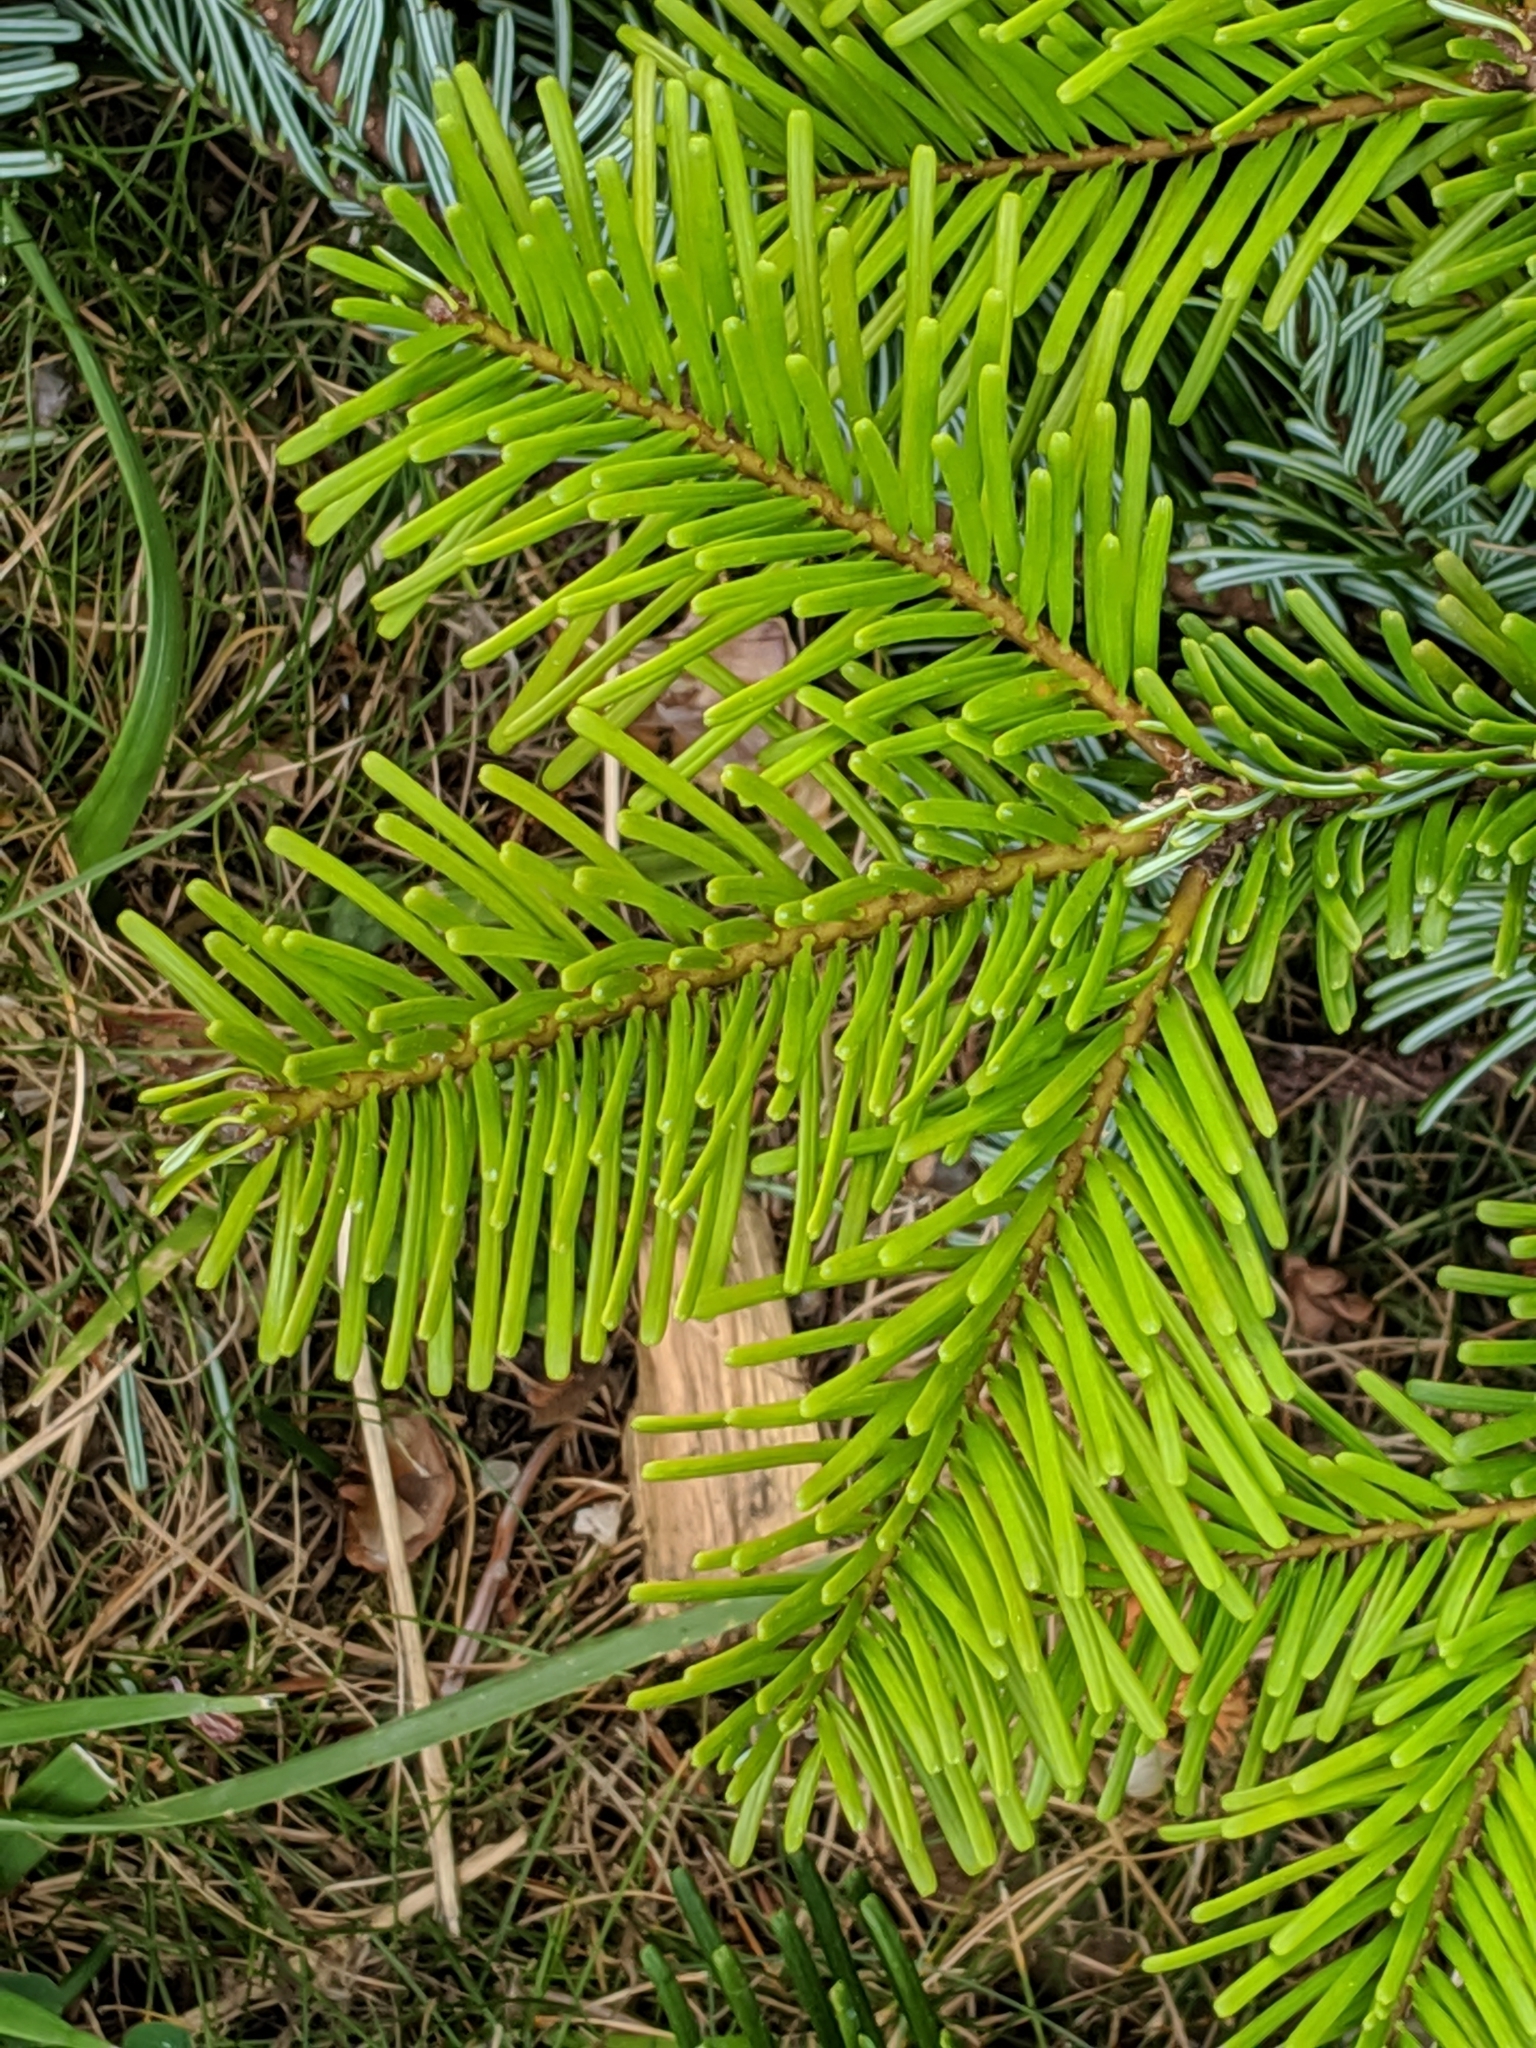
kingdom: Plantae
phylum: Tracheophyta
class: Pinopsida
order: Pinales
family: Pinaceae
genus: Abies
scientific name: Abies grandis
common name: Giant fir
